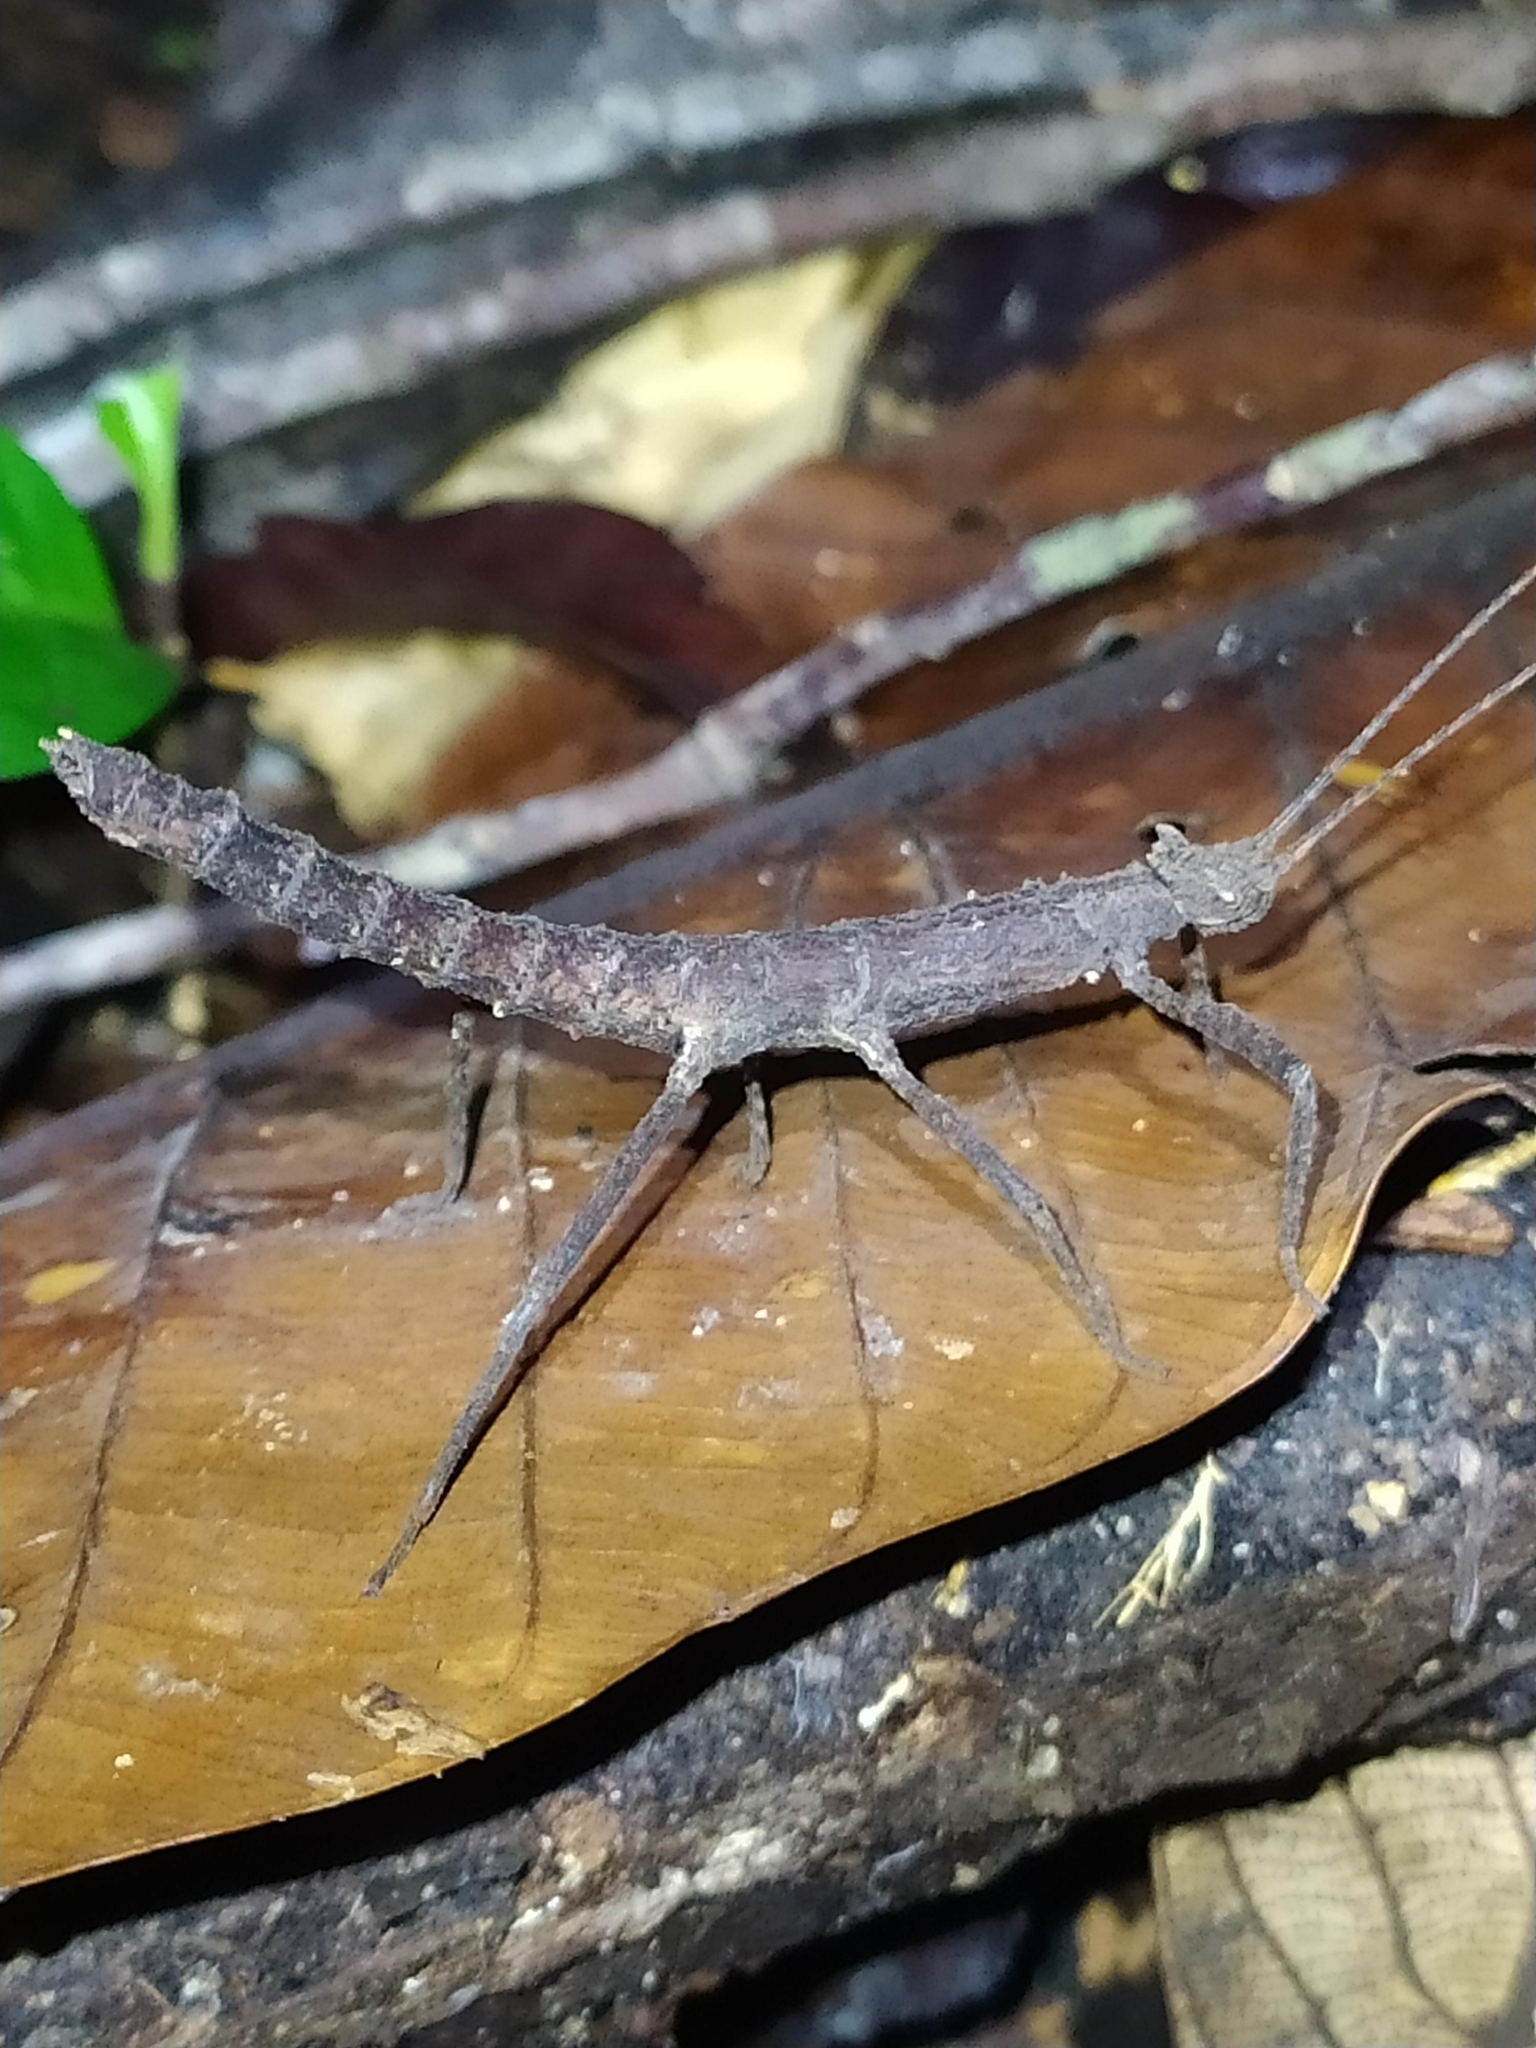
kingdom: Animalia
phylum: Arthropoda
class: Insecta
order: Phasmida
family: Pseudophasmatidae
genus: Creoxylus
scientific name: Creoxylus spinosus
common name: Trinidad log stick insect
